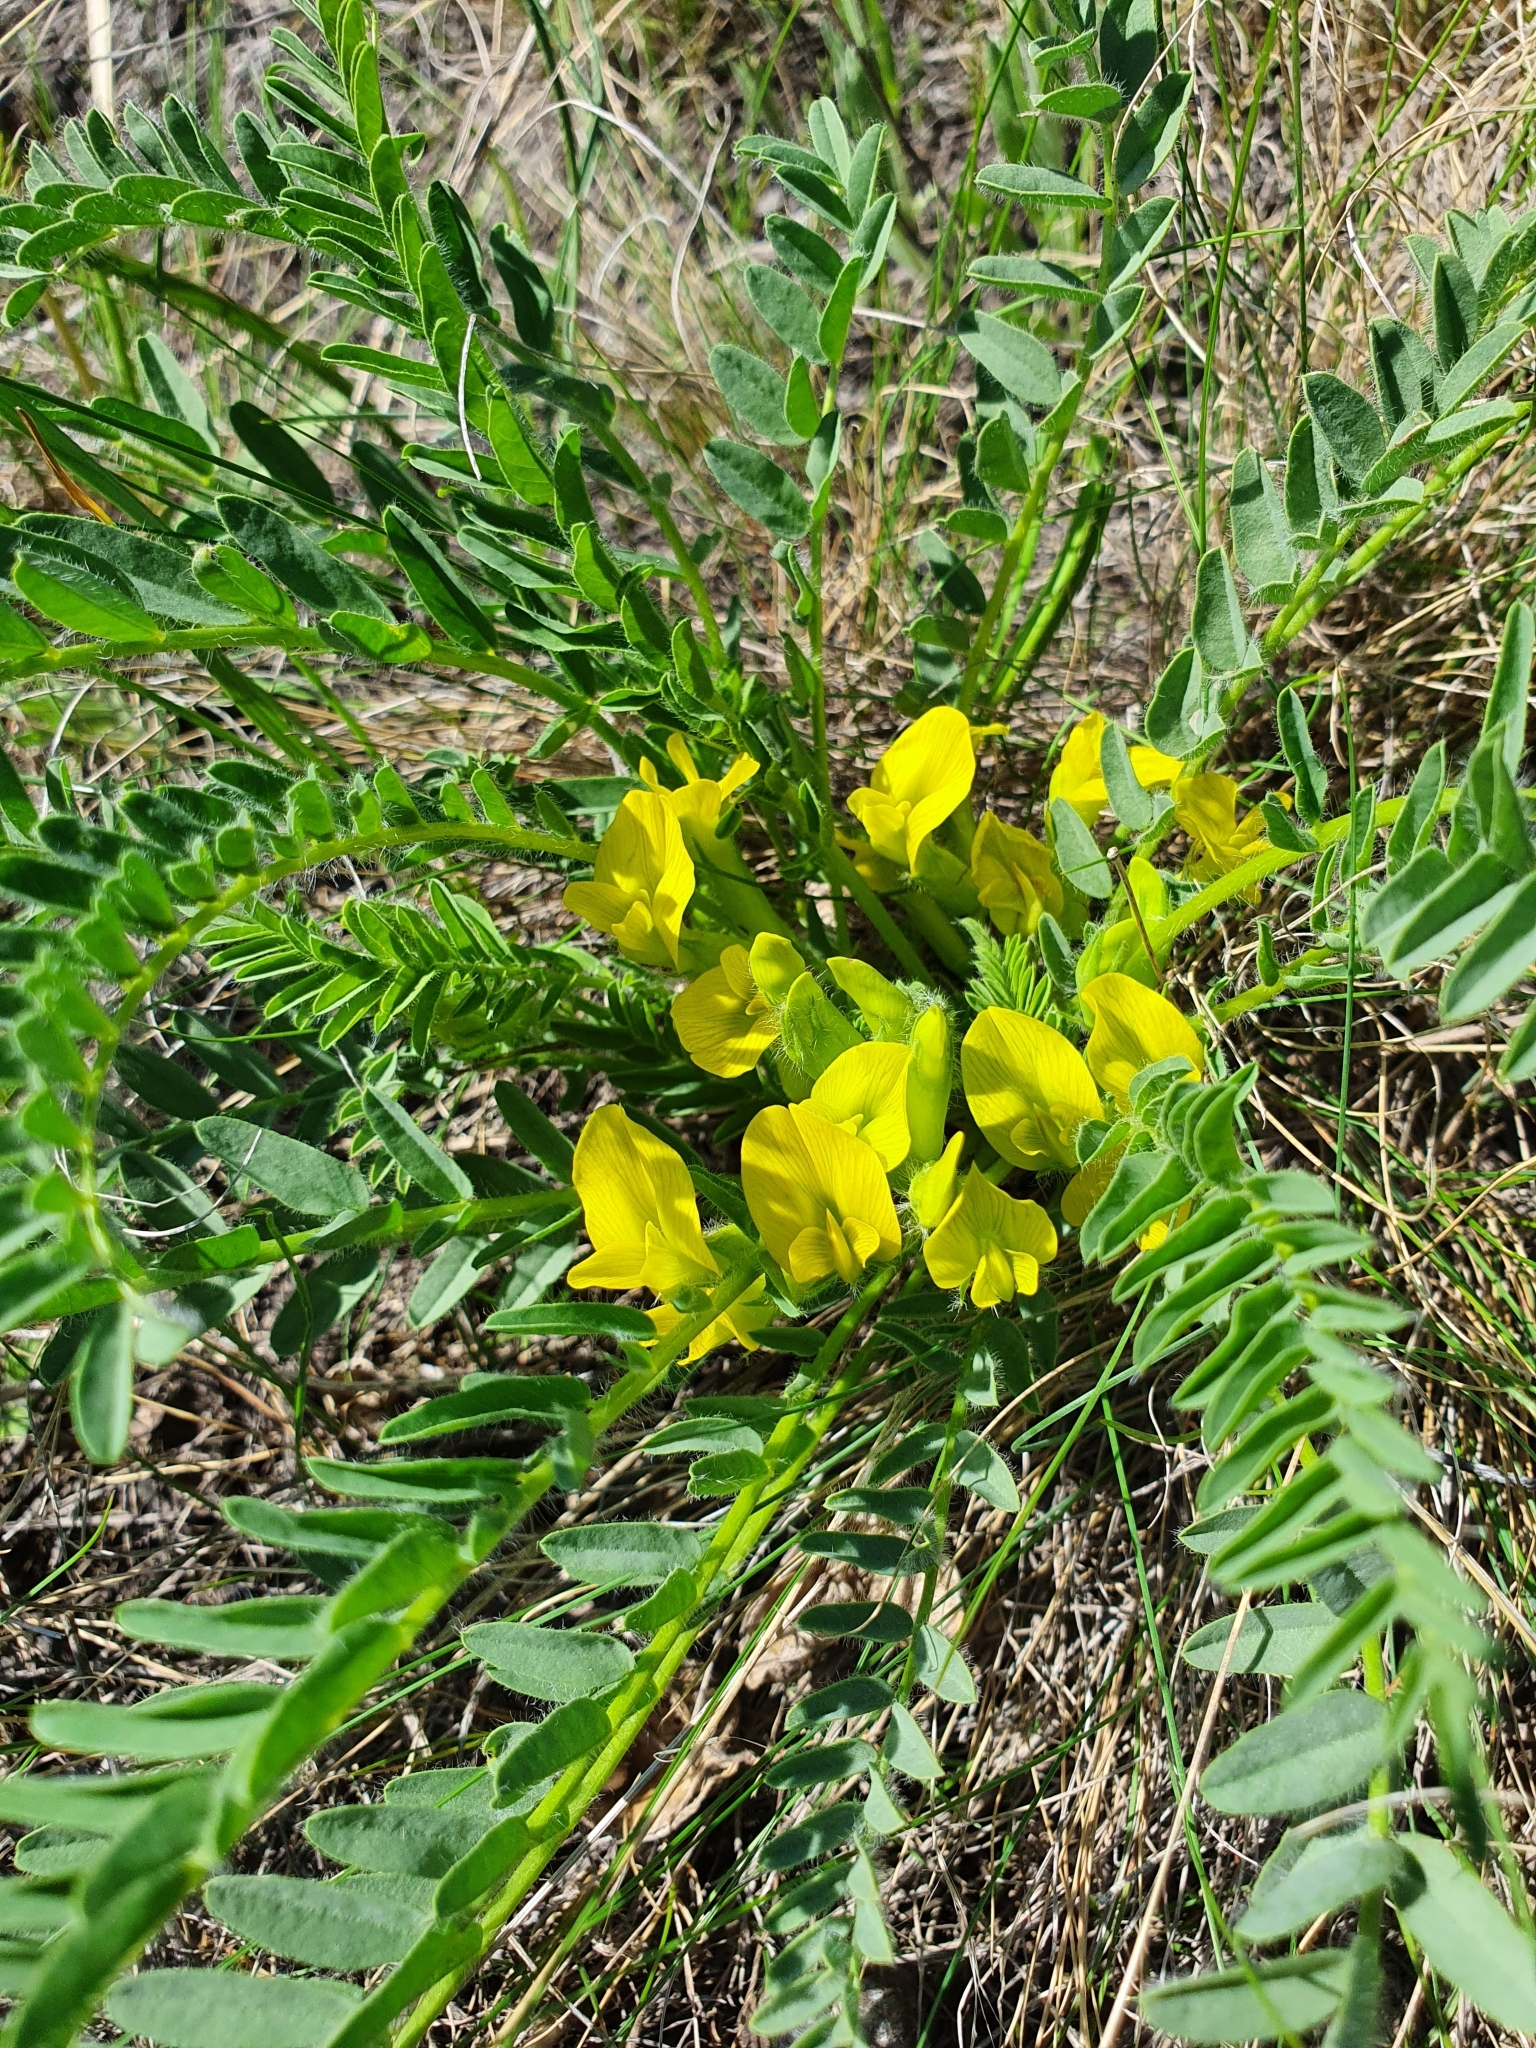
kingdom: Plantae
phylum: Tracheophyta
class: Magnoliopsida
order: Fabales
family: Fabaceae
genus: Astragalus
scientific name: Astragalus wolgensis
